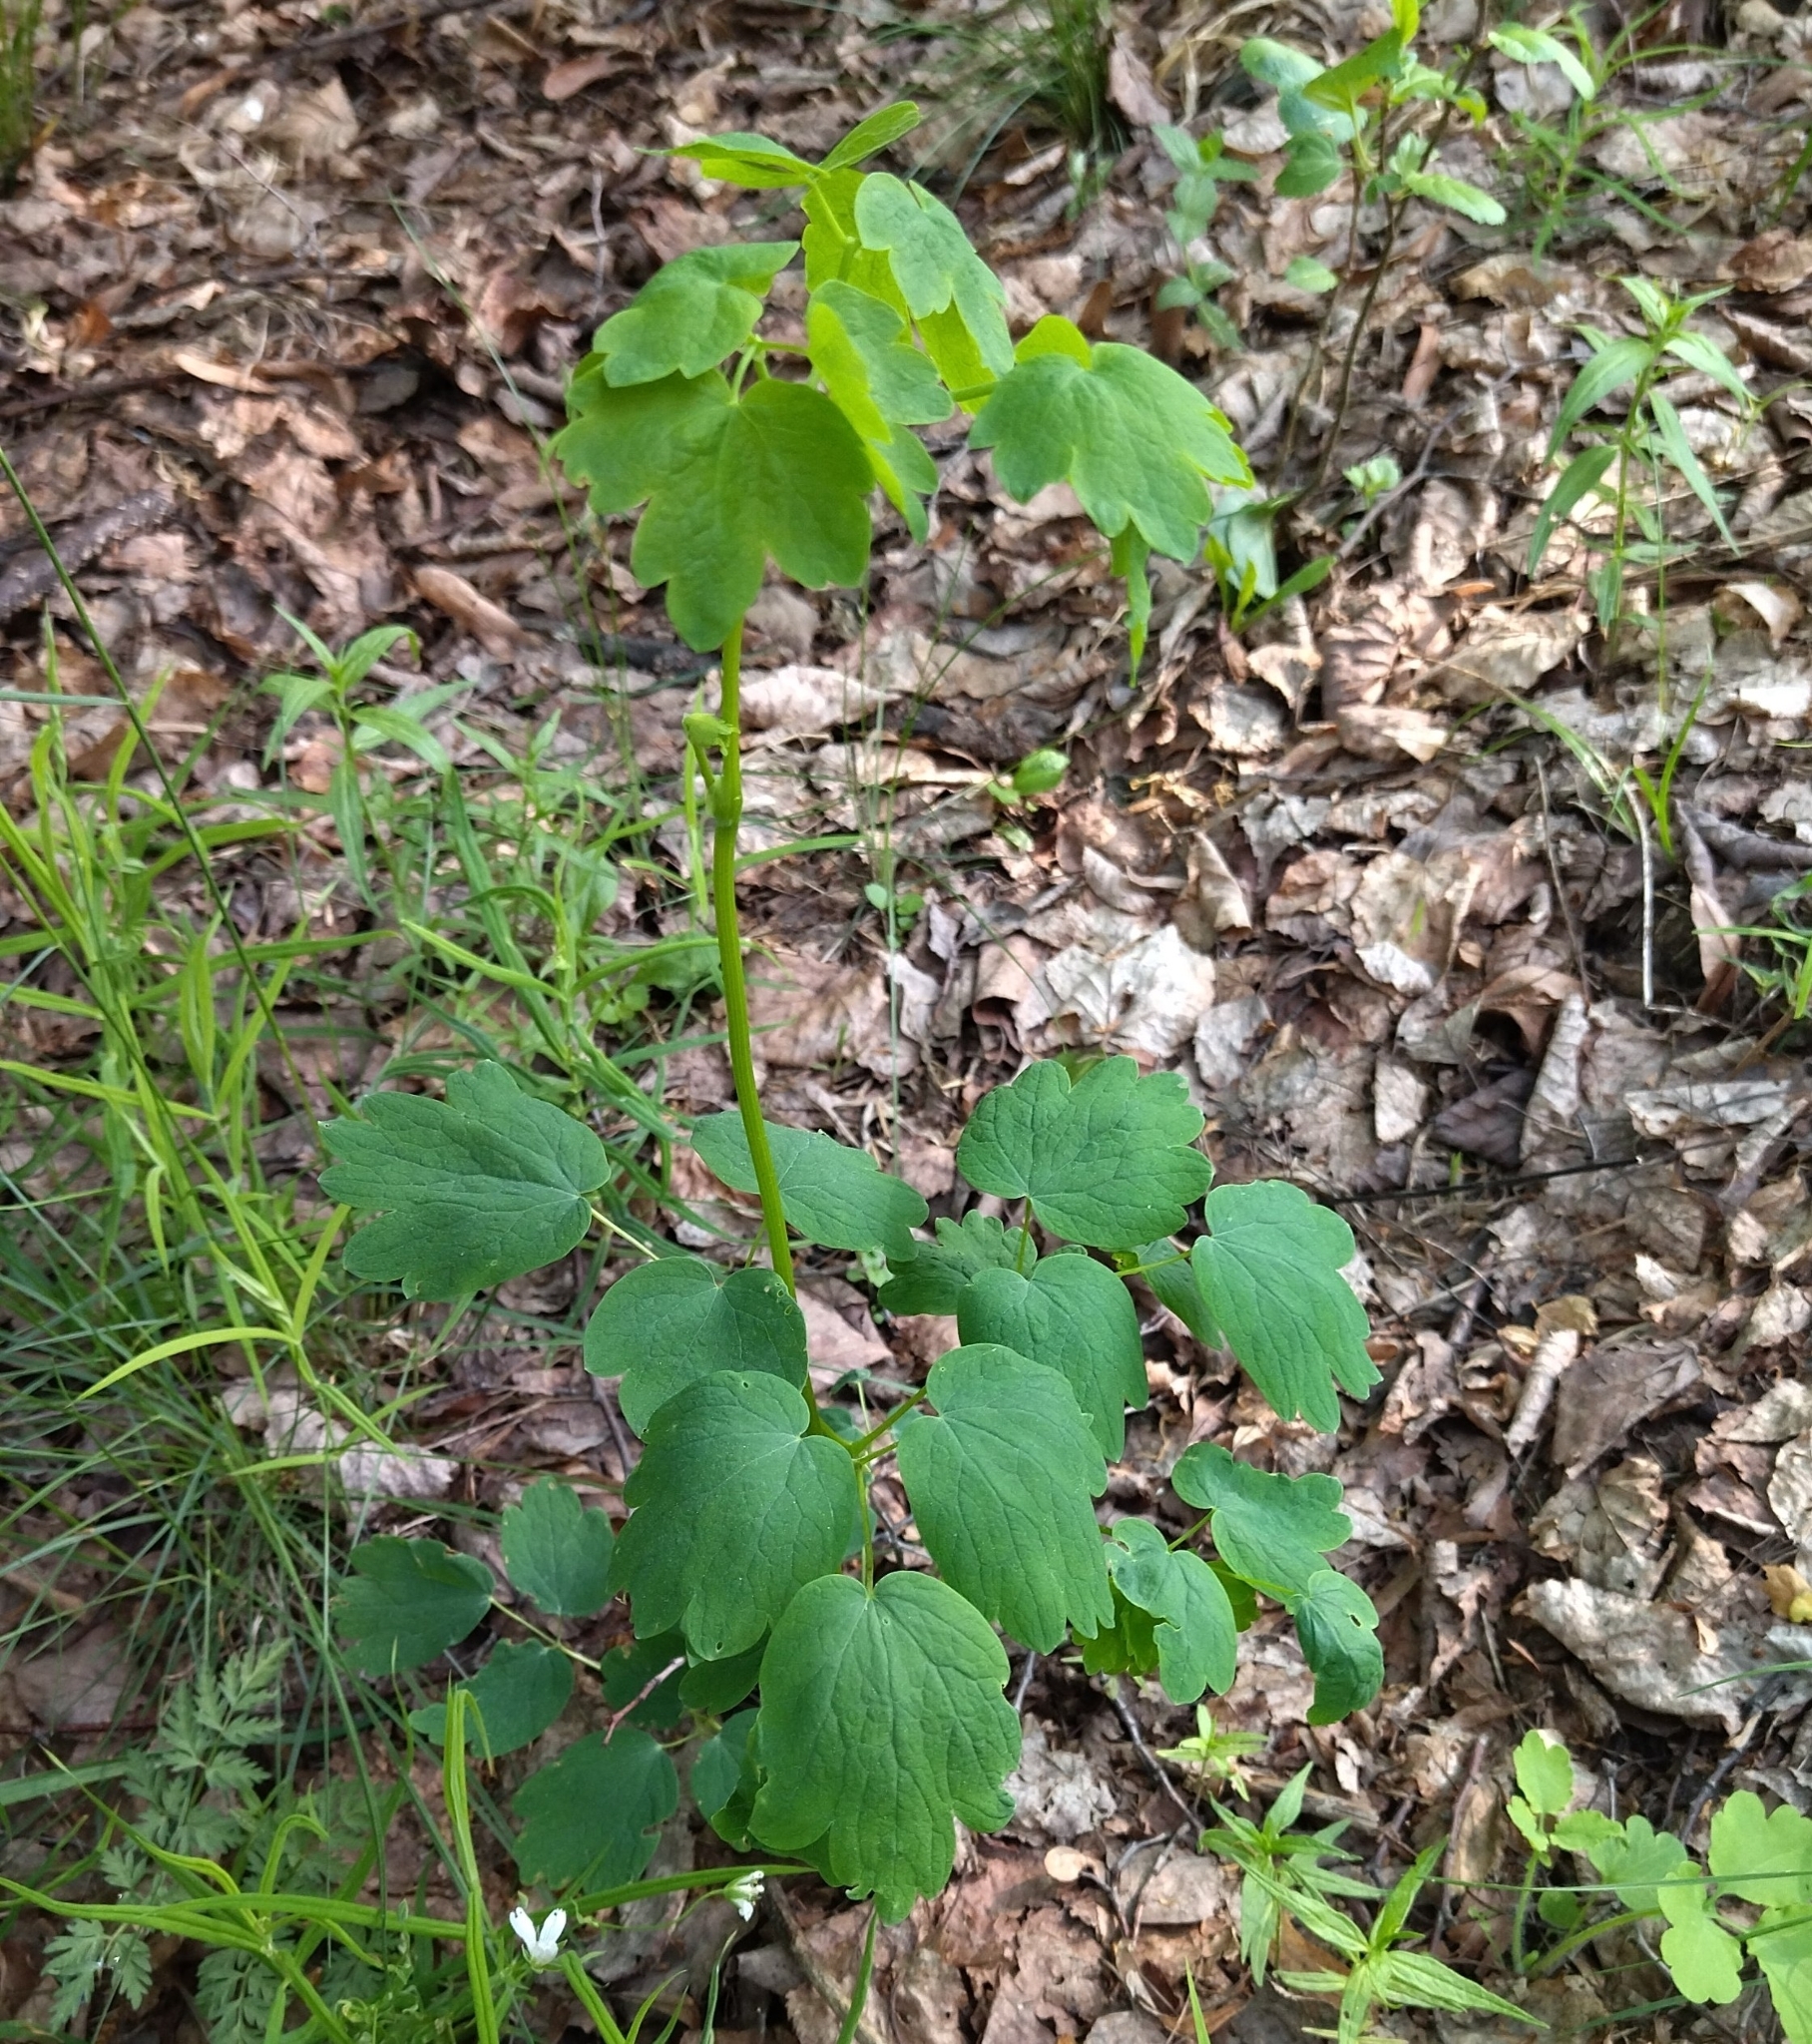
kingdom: Plantae
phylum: Tracheophyta
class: Magnoliopsida
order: Ranunculales
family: Ranunculaceae
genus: Thalictrum
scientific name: Thalictrum aquilegiifolium
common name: French meadow-rue
